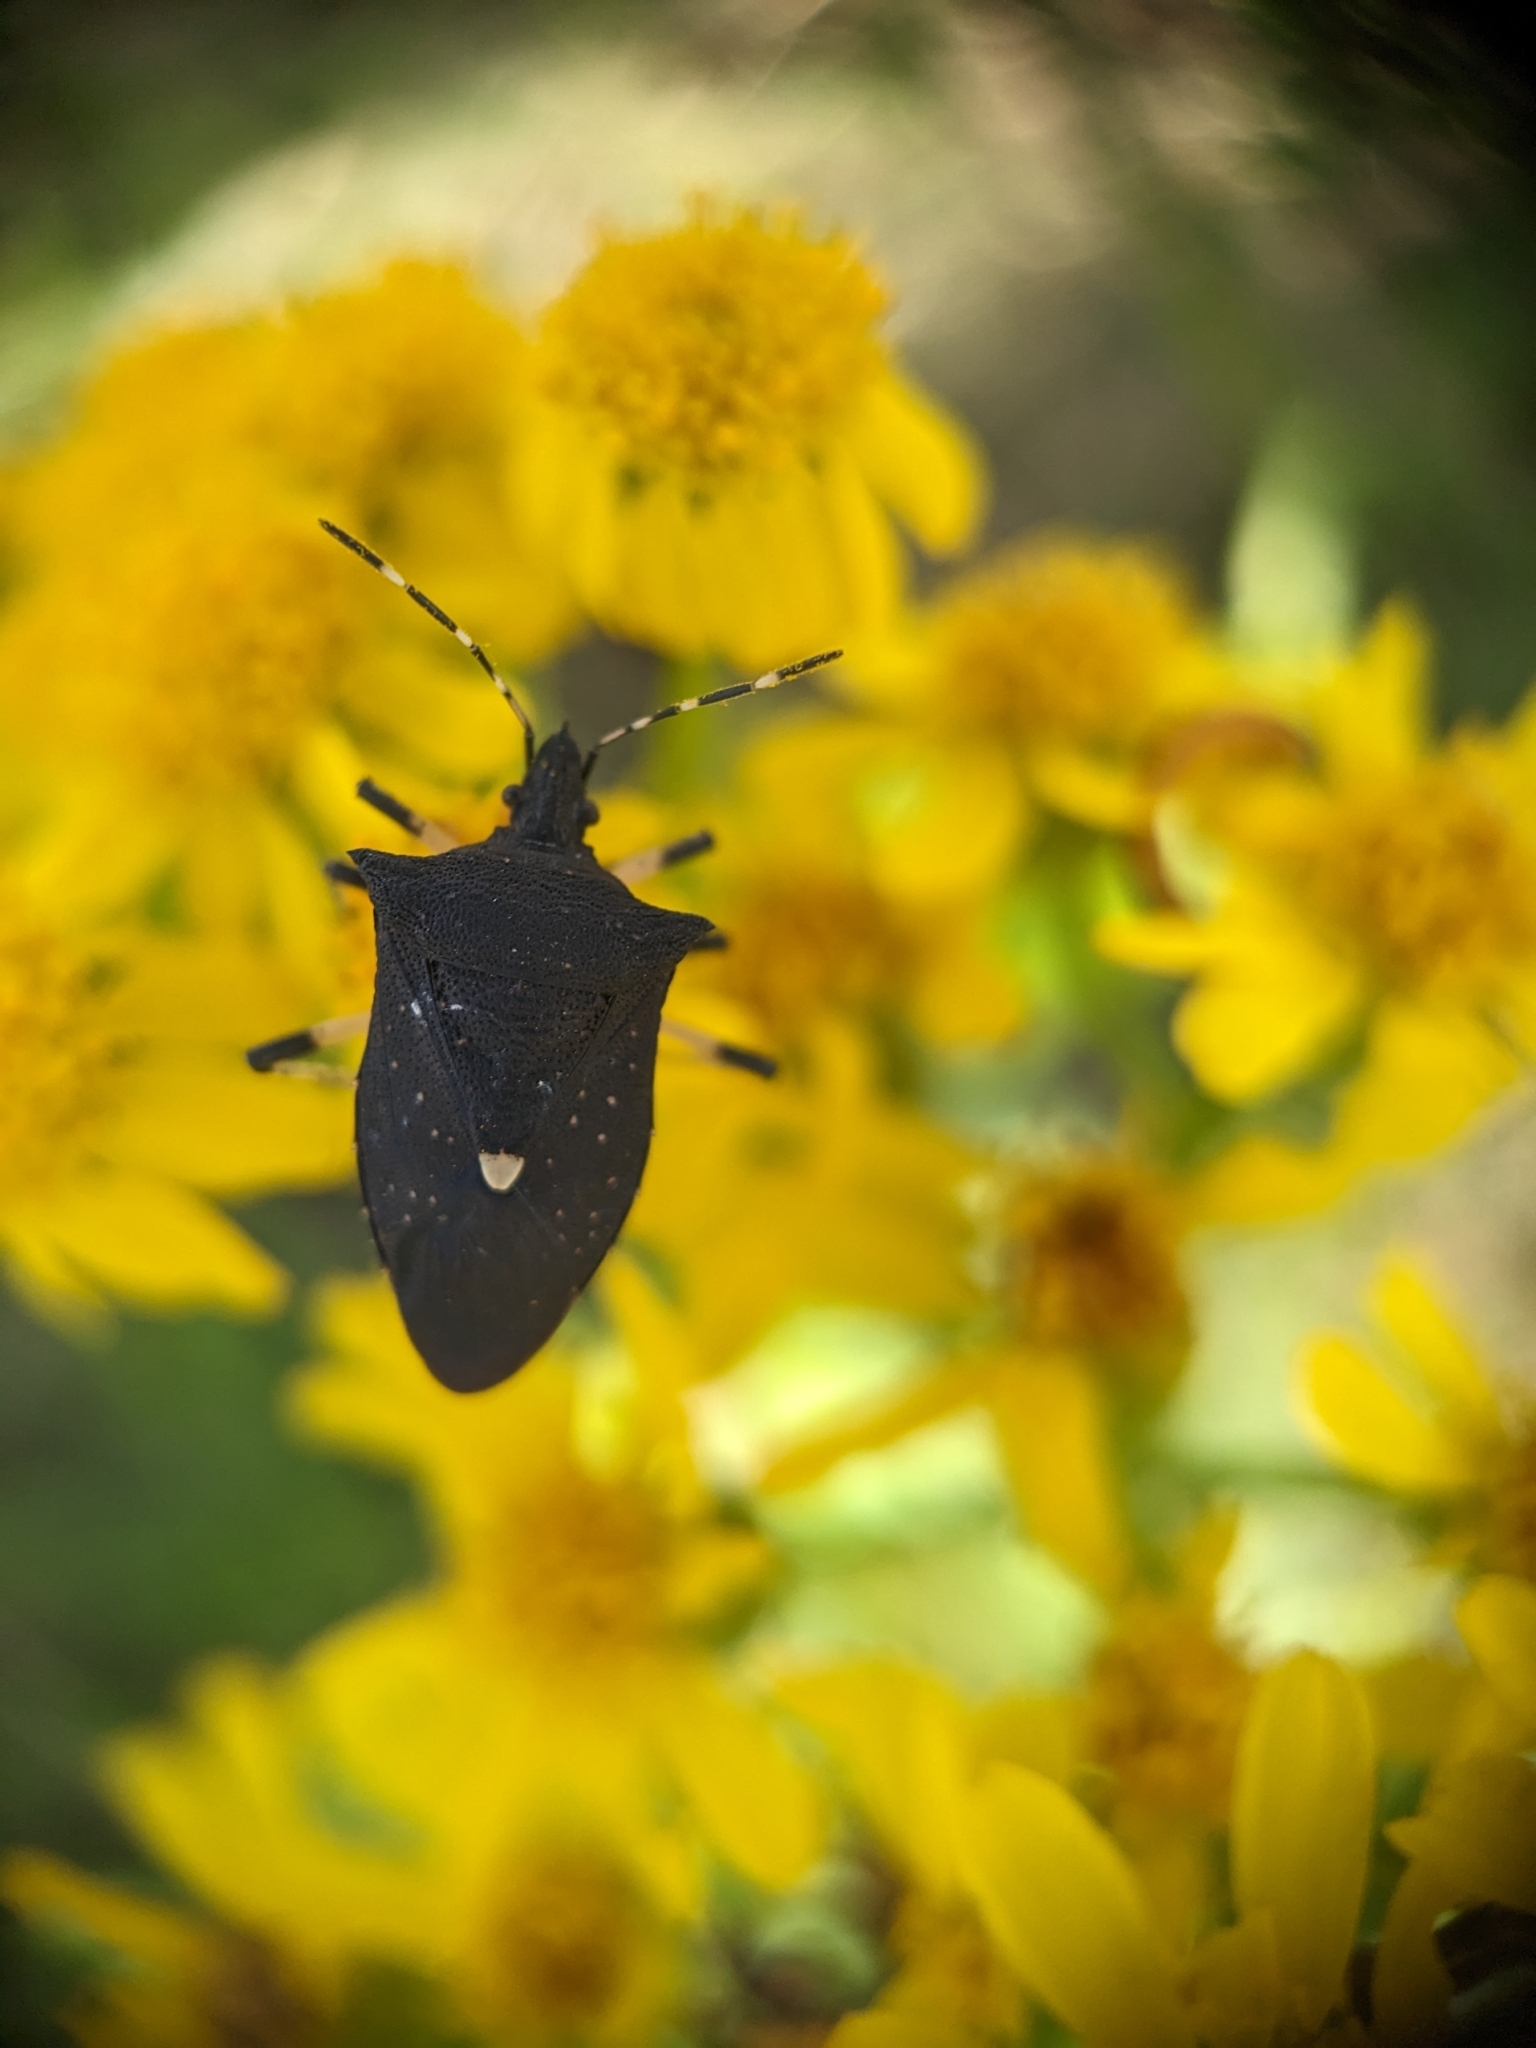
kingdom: Animalia
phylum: Arthropoda
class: Insecta
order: Hemiptera
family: Pentatomidae
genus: Proxys
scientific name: Proxys punctulatus
